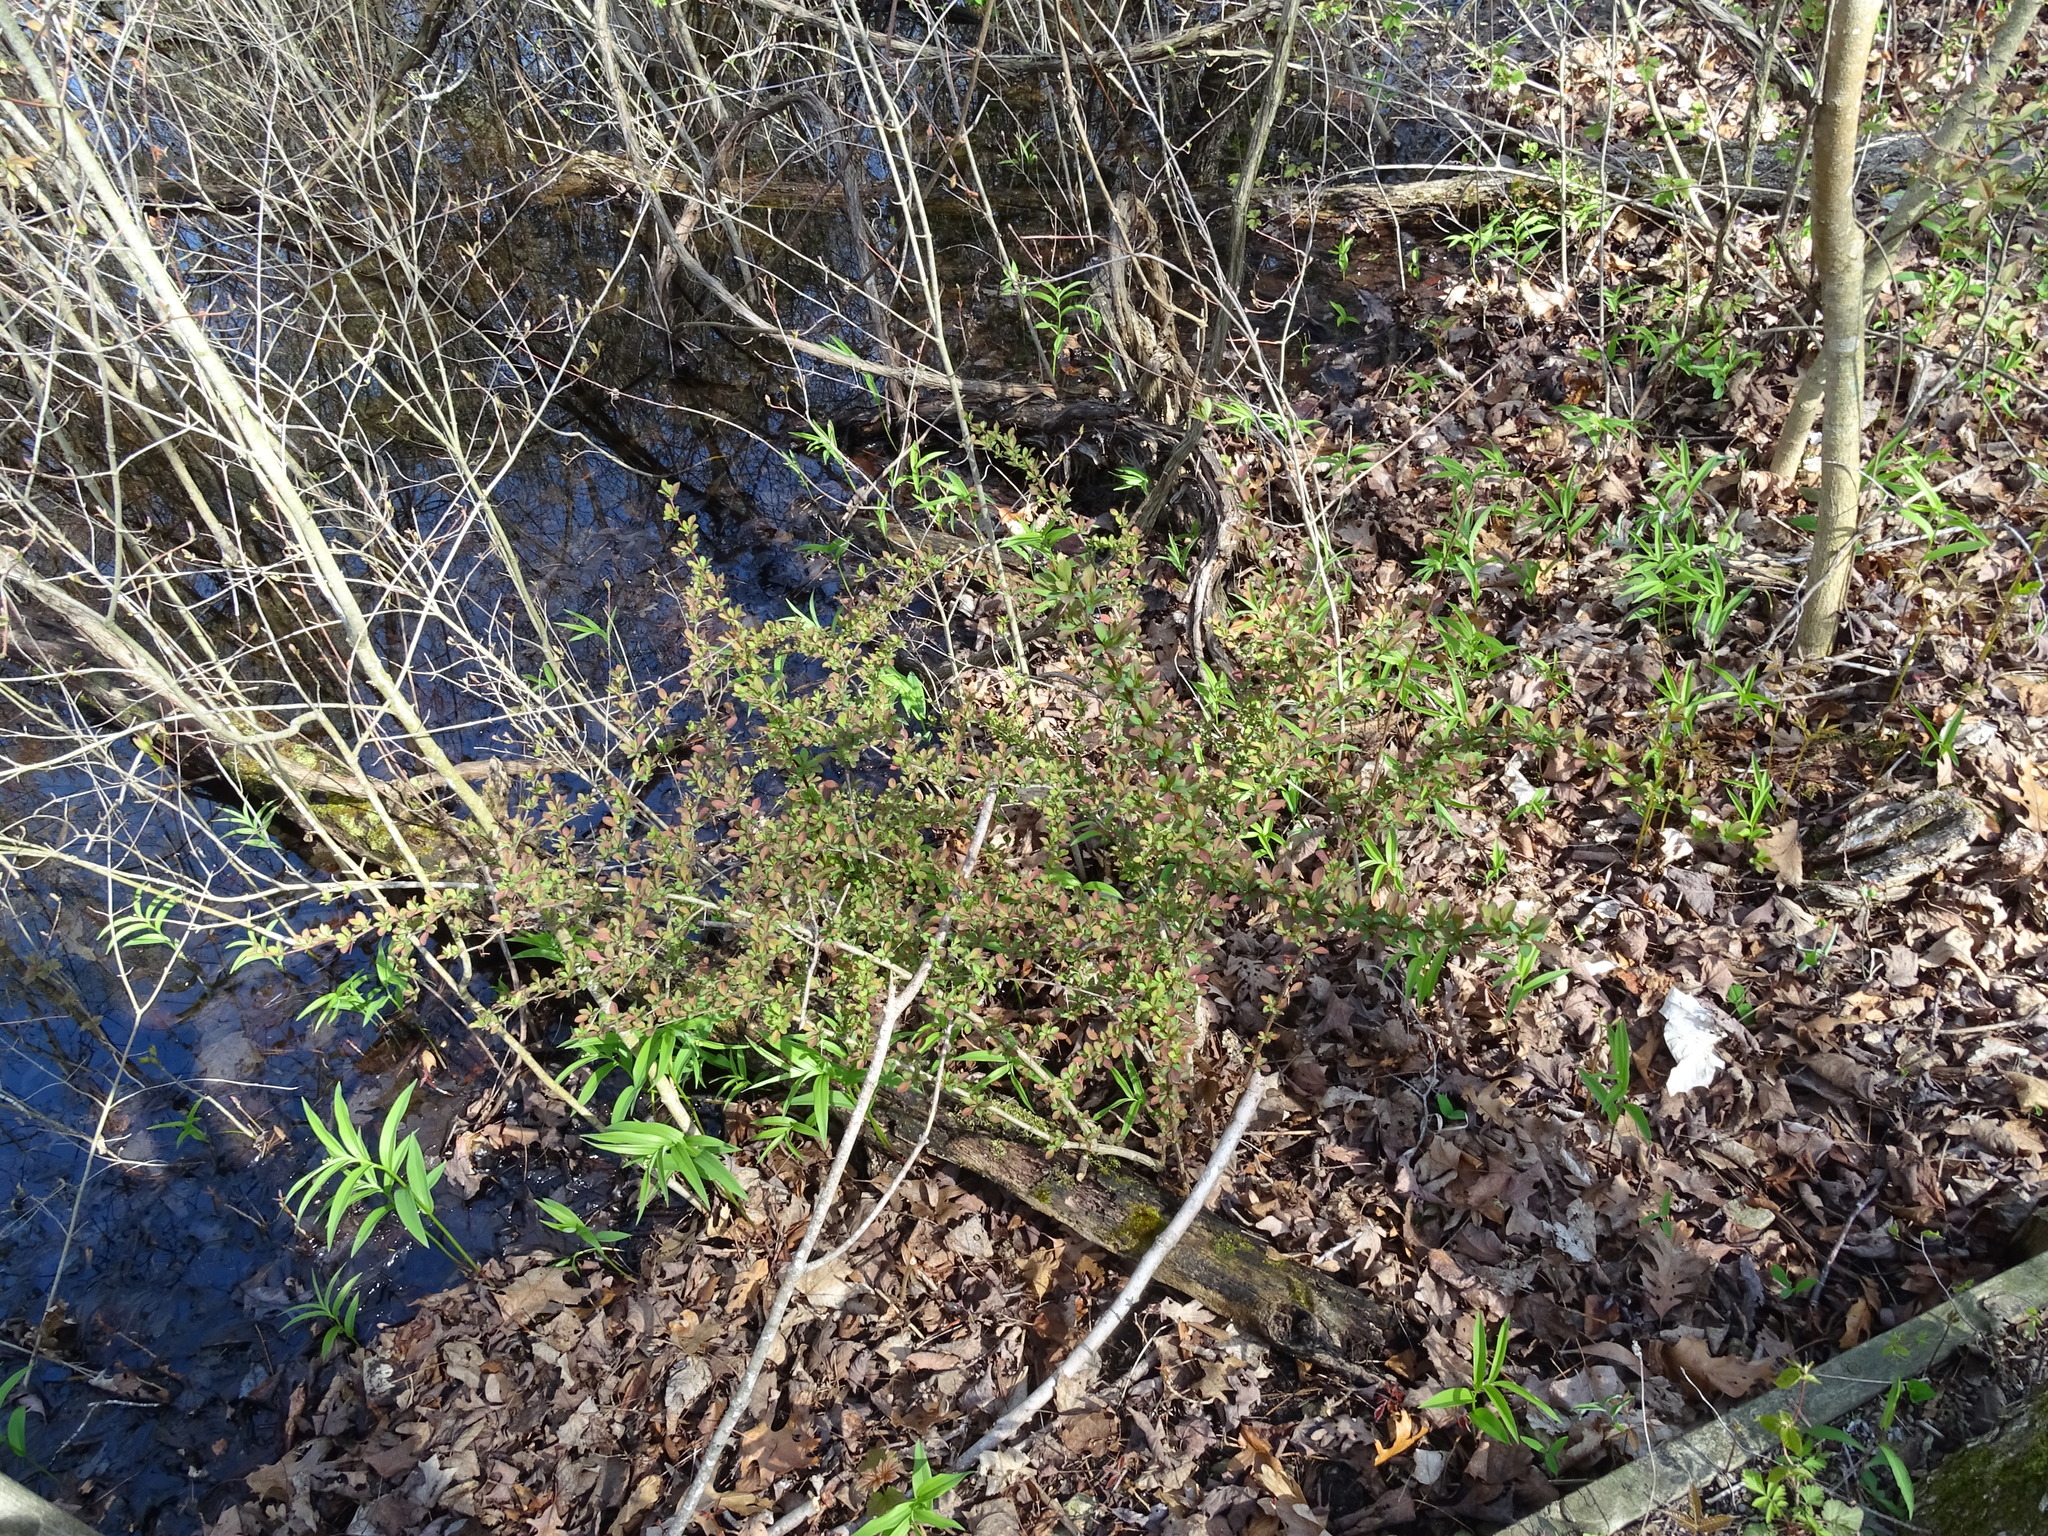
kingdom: Plantae
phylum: Tracheophyta
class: Magnoliopsida
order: Ranunculales
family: Berberidaceae
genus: Berberis
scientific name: Berberis thunbergii
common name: Japanese barberry
